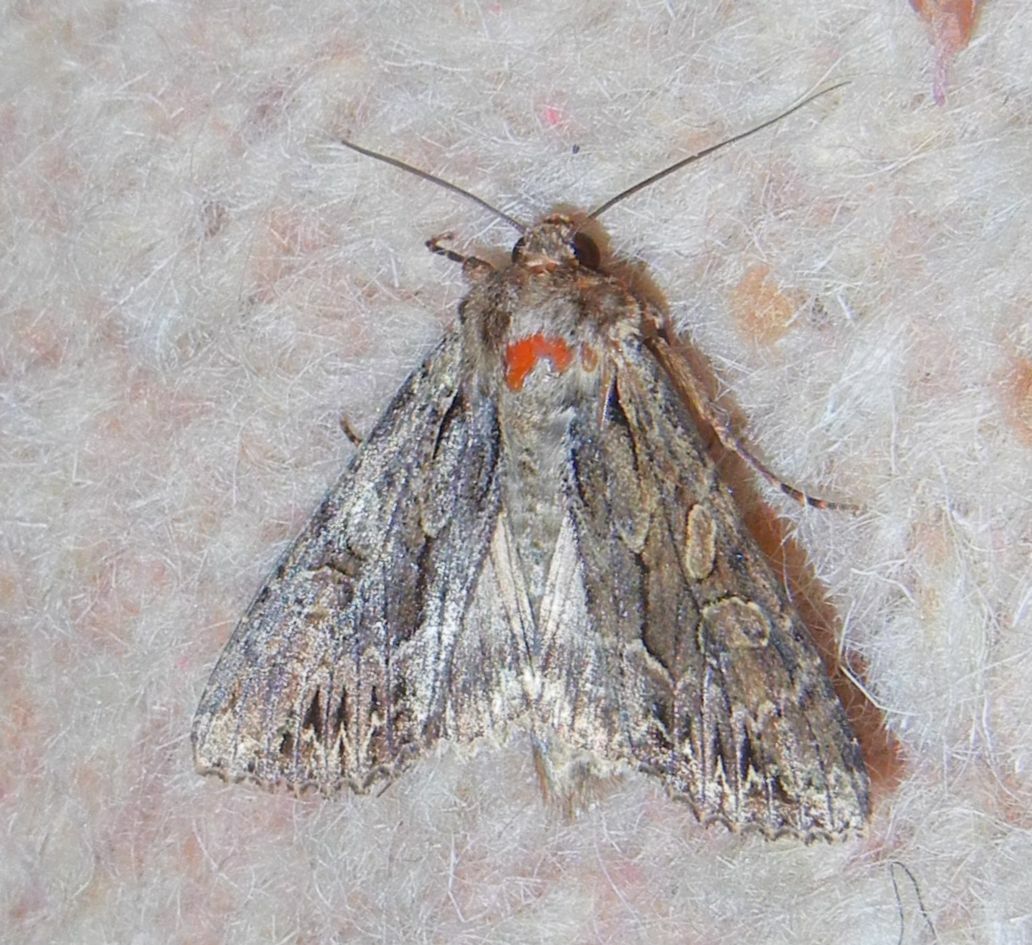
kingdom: Animalia
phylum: Arthropoda
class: Insecta
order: Lepidoptera
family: Noctuidae
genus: Apamea
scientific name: Apamea monoglypha
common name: Dark arches
